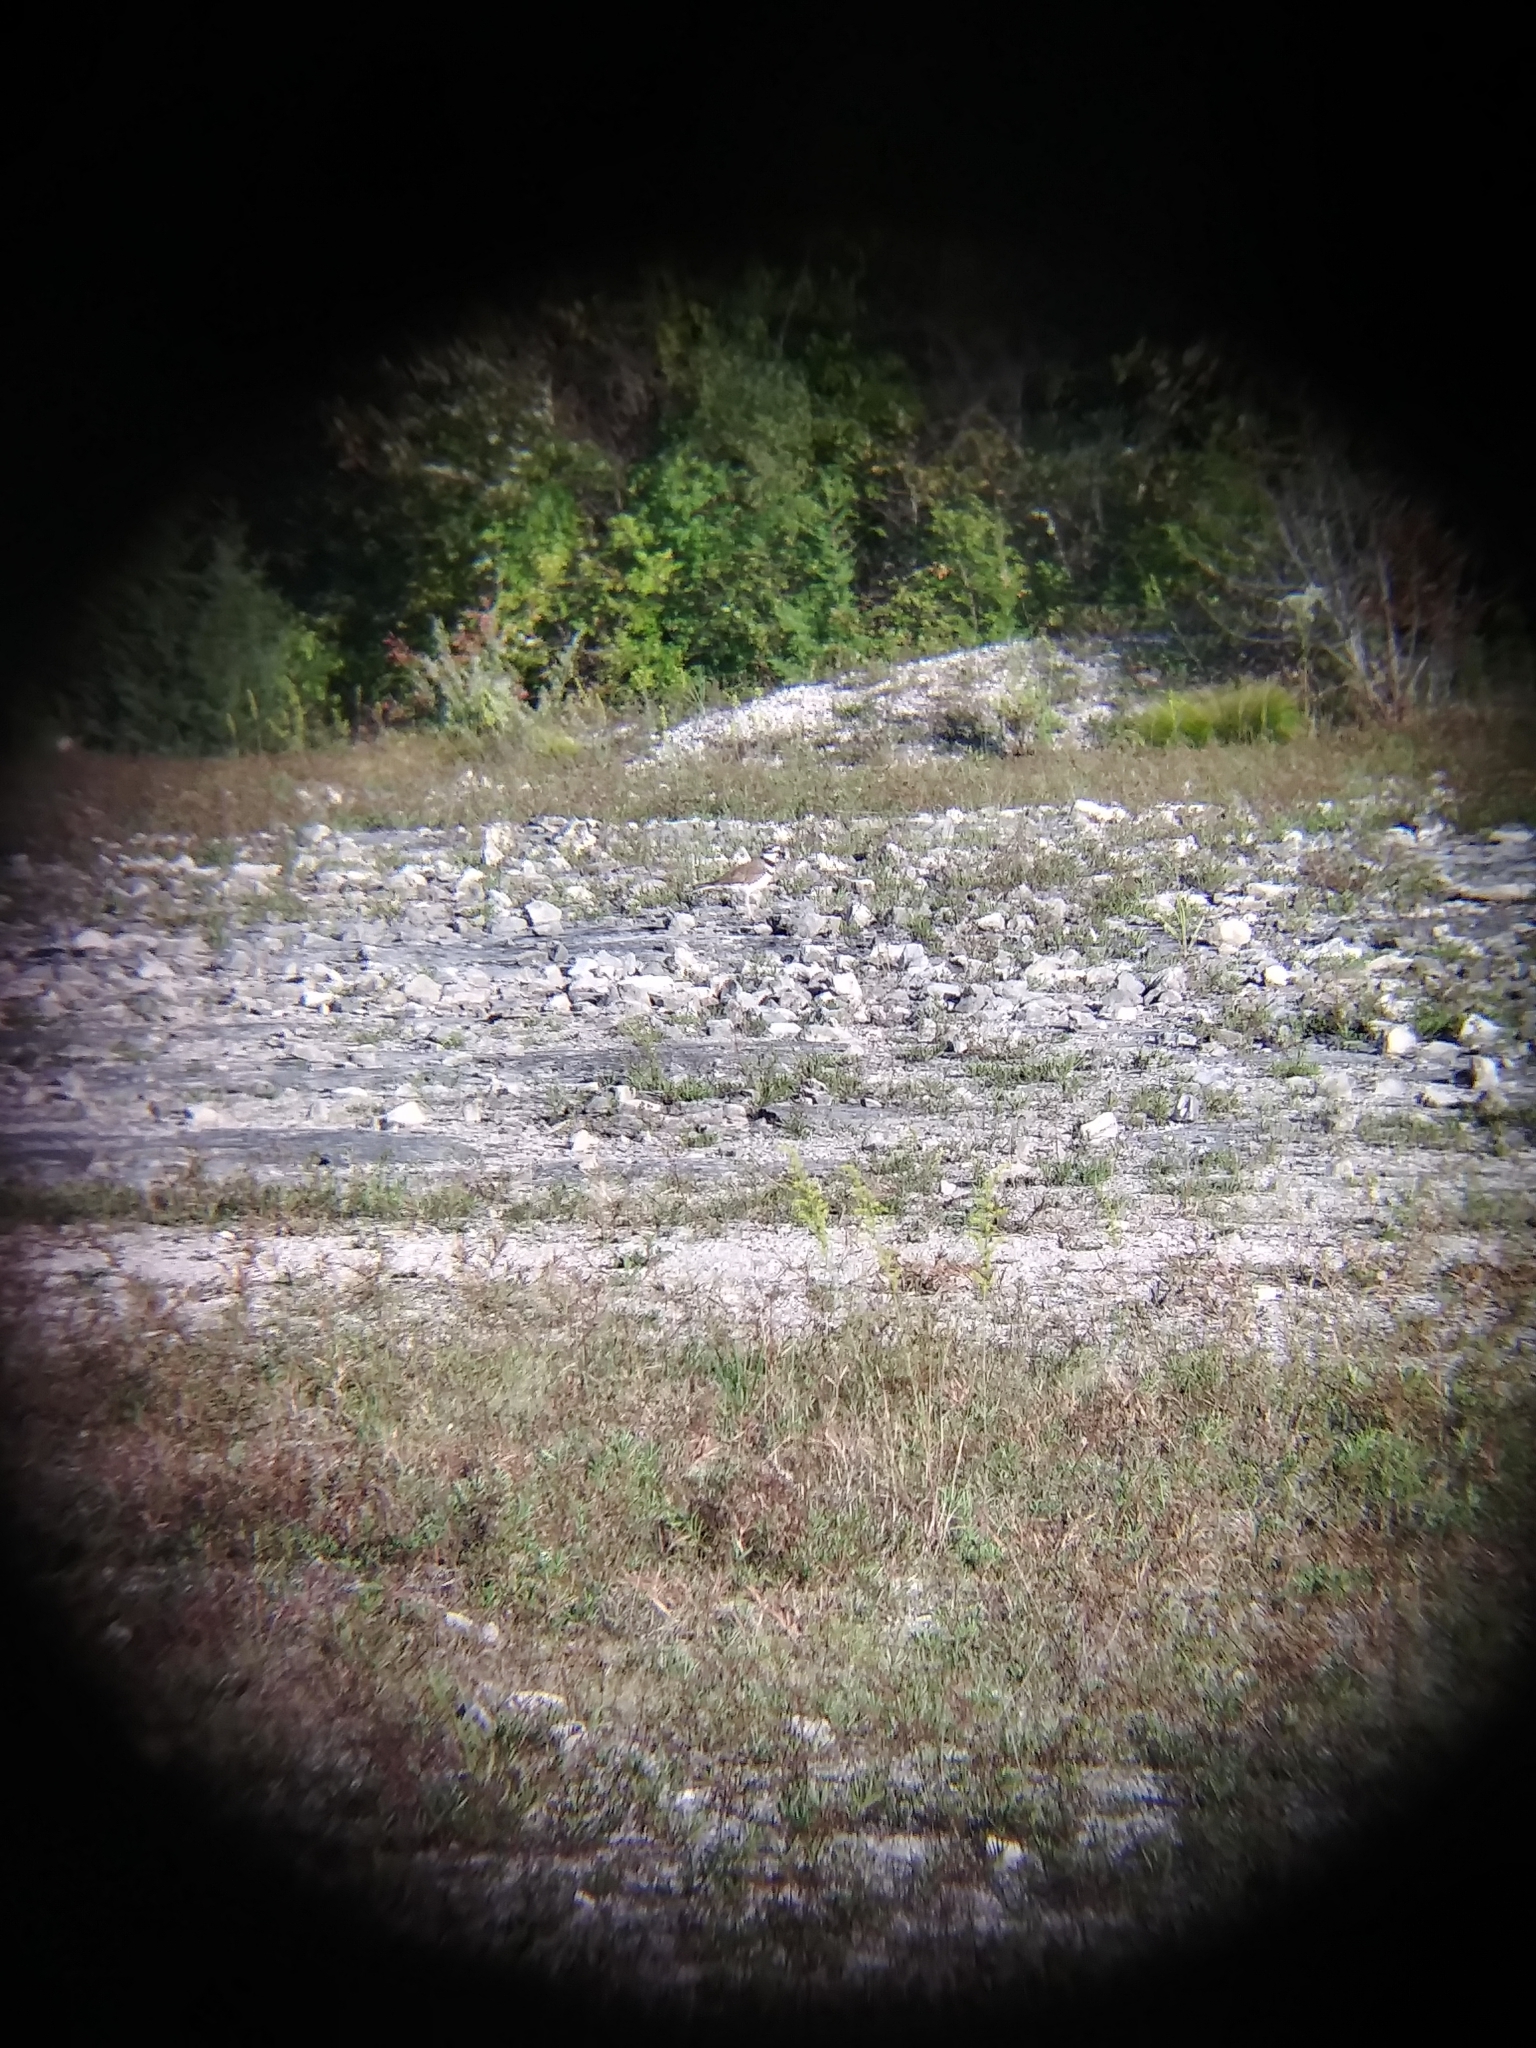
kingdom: Animalia
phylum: Chordata
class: Aves
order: Charadriiformes
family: Charadriidae
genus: Charadrius
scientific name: Charadrius vociferus
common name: Killdeer
